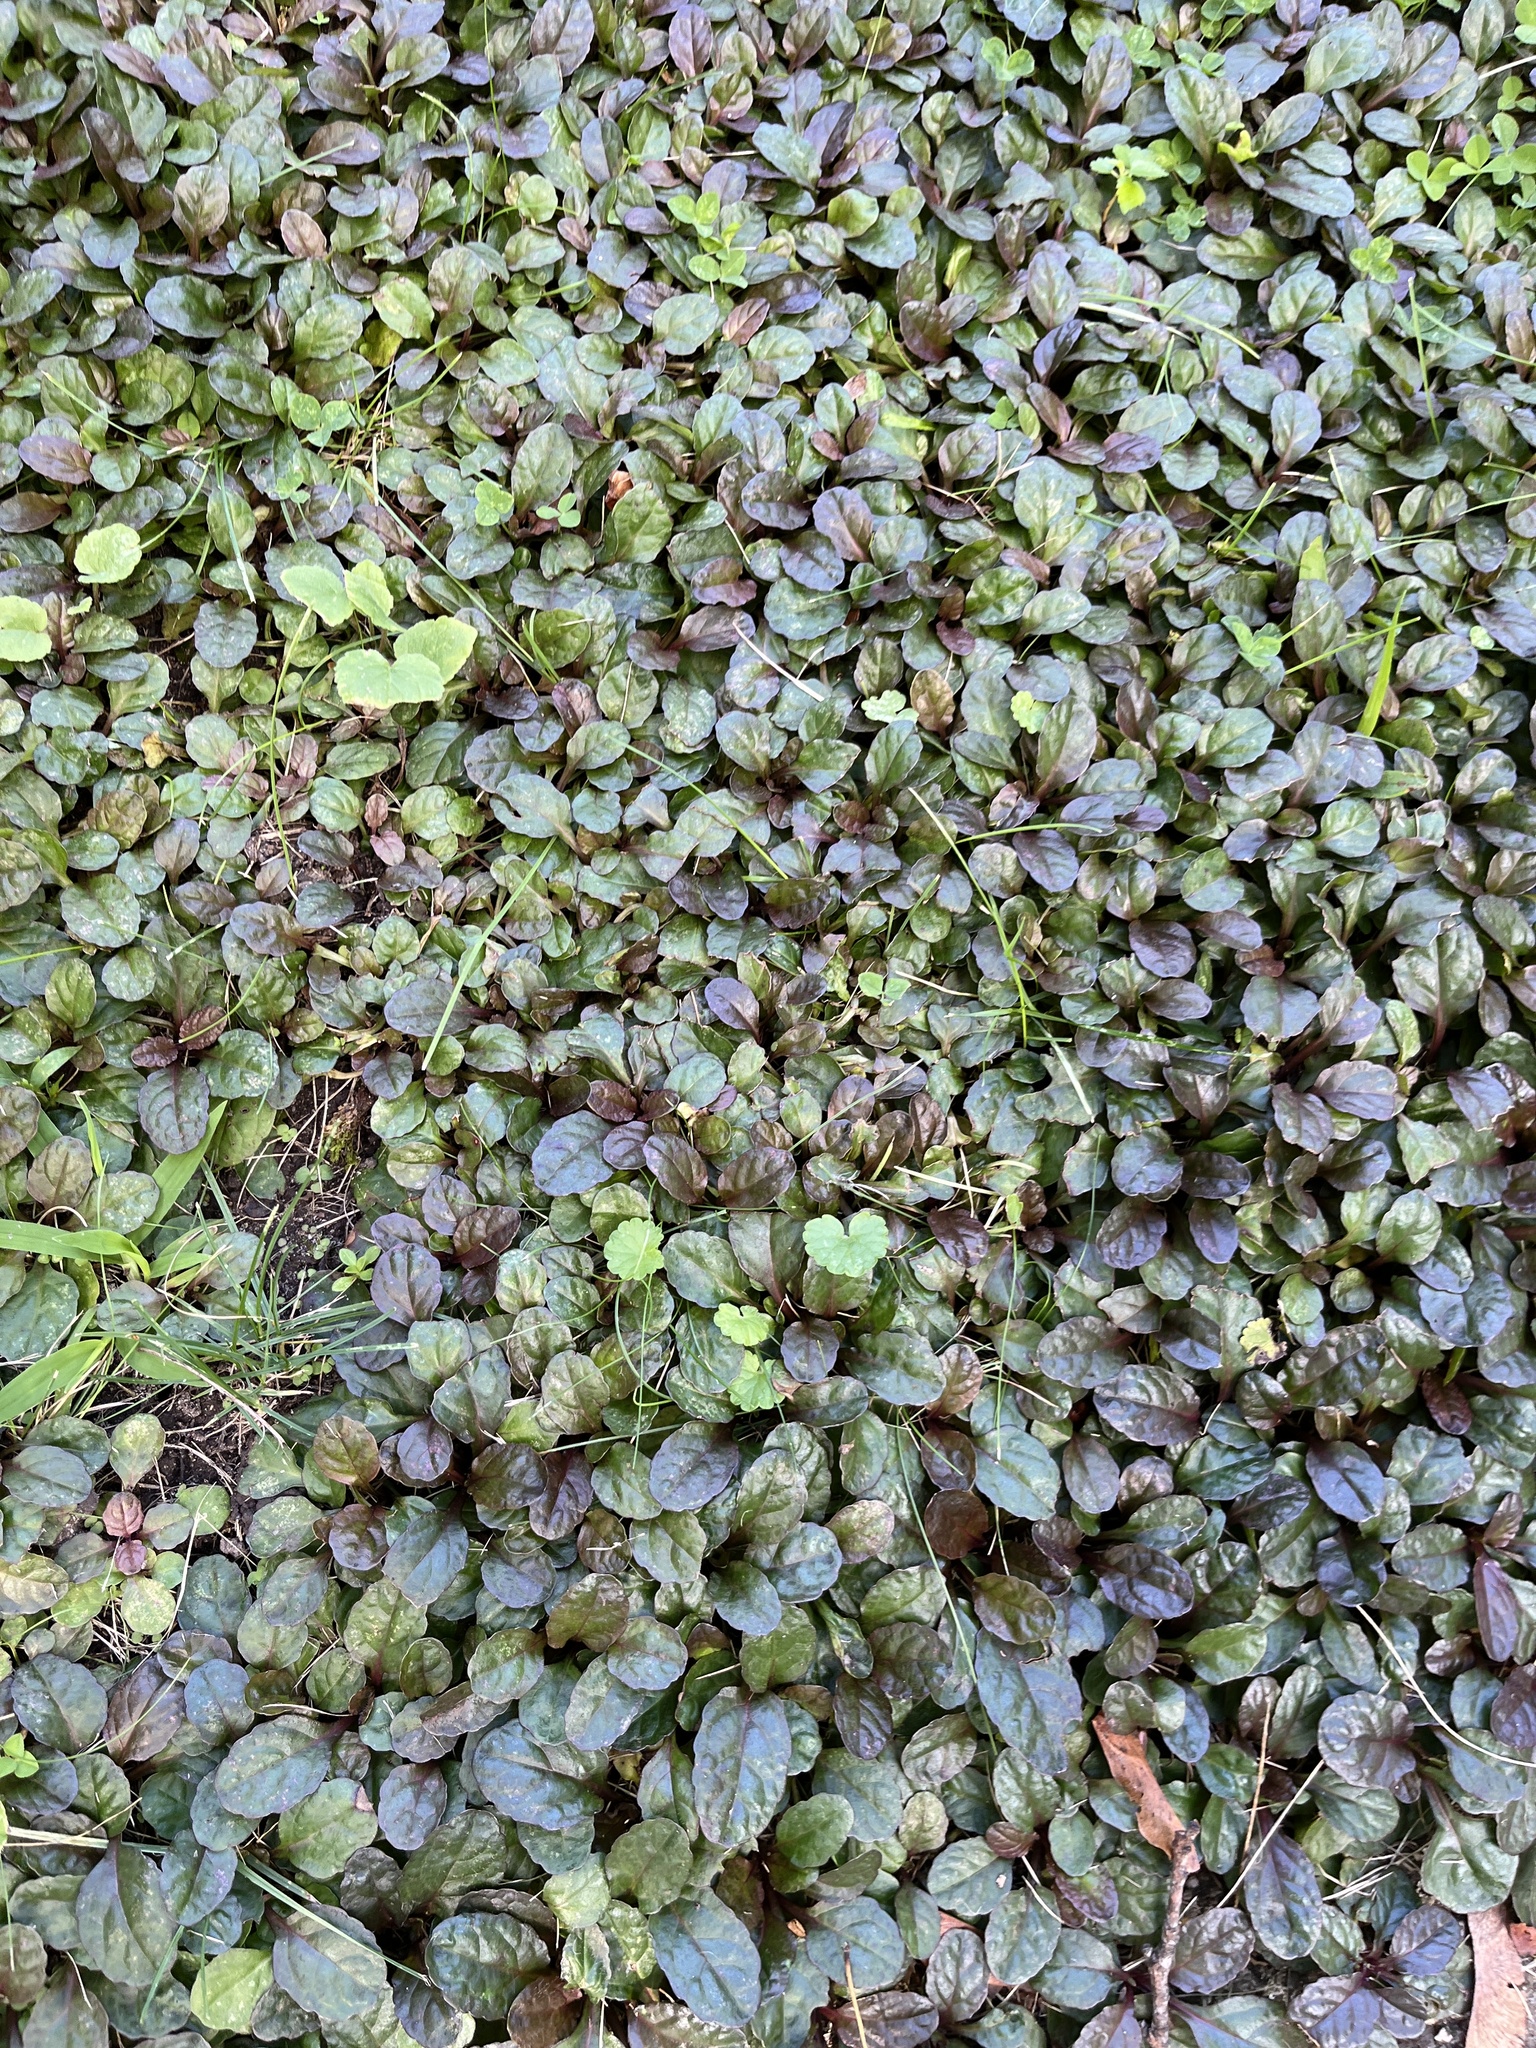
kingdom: Plantae
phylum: Tracheophyta
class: Magnoliopsida
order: Lamiales
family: Lamiaceae
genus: Ajuga
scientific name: Ajuga reptans
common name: Bugle
